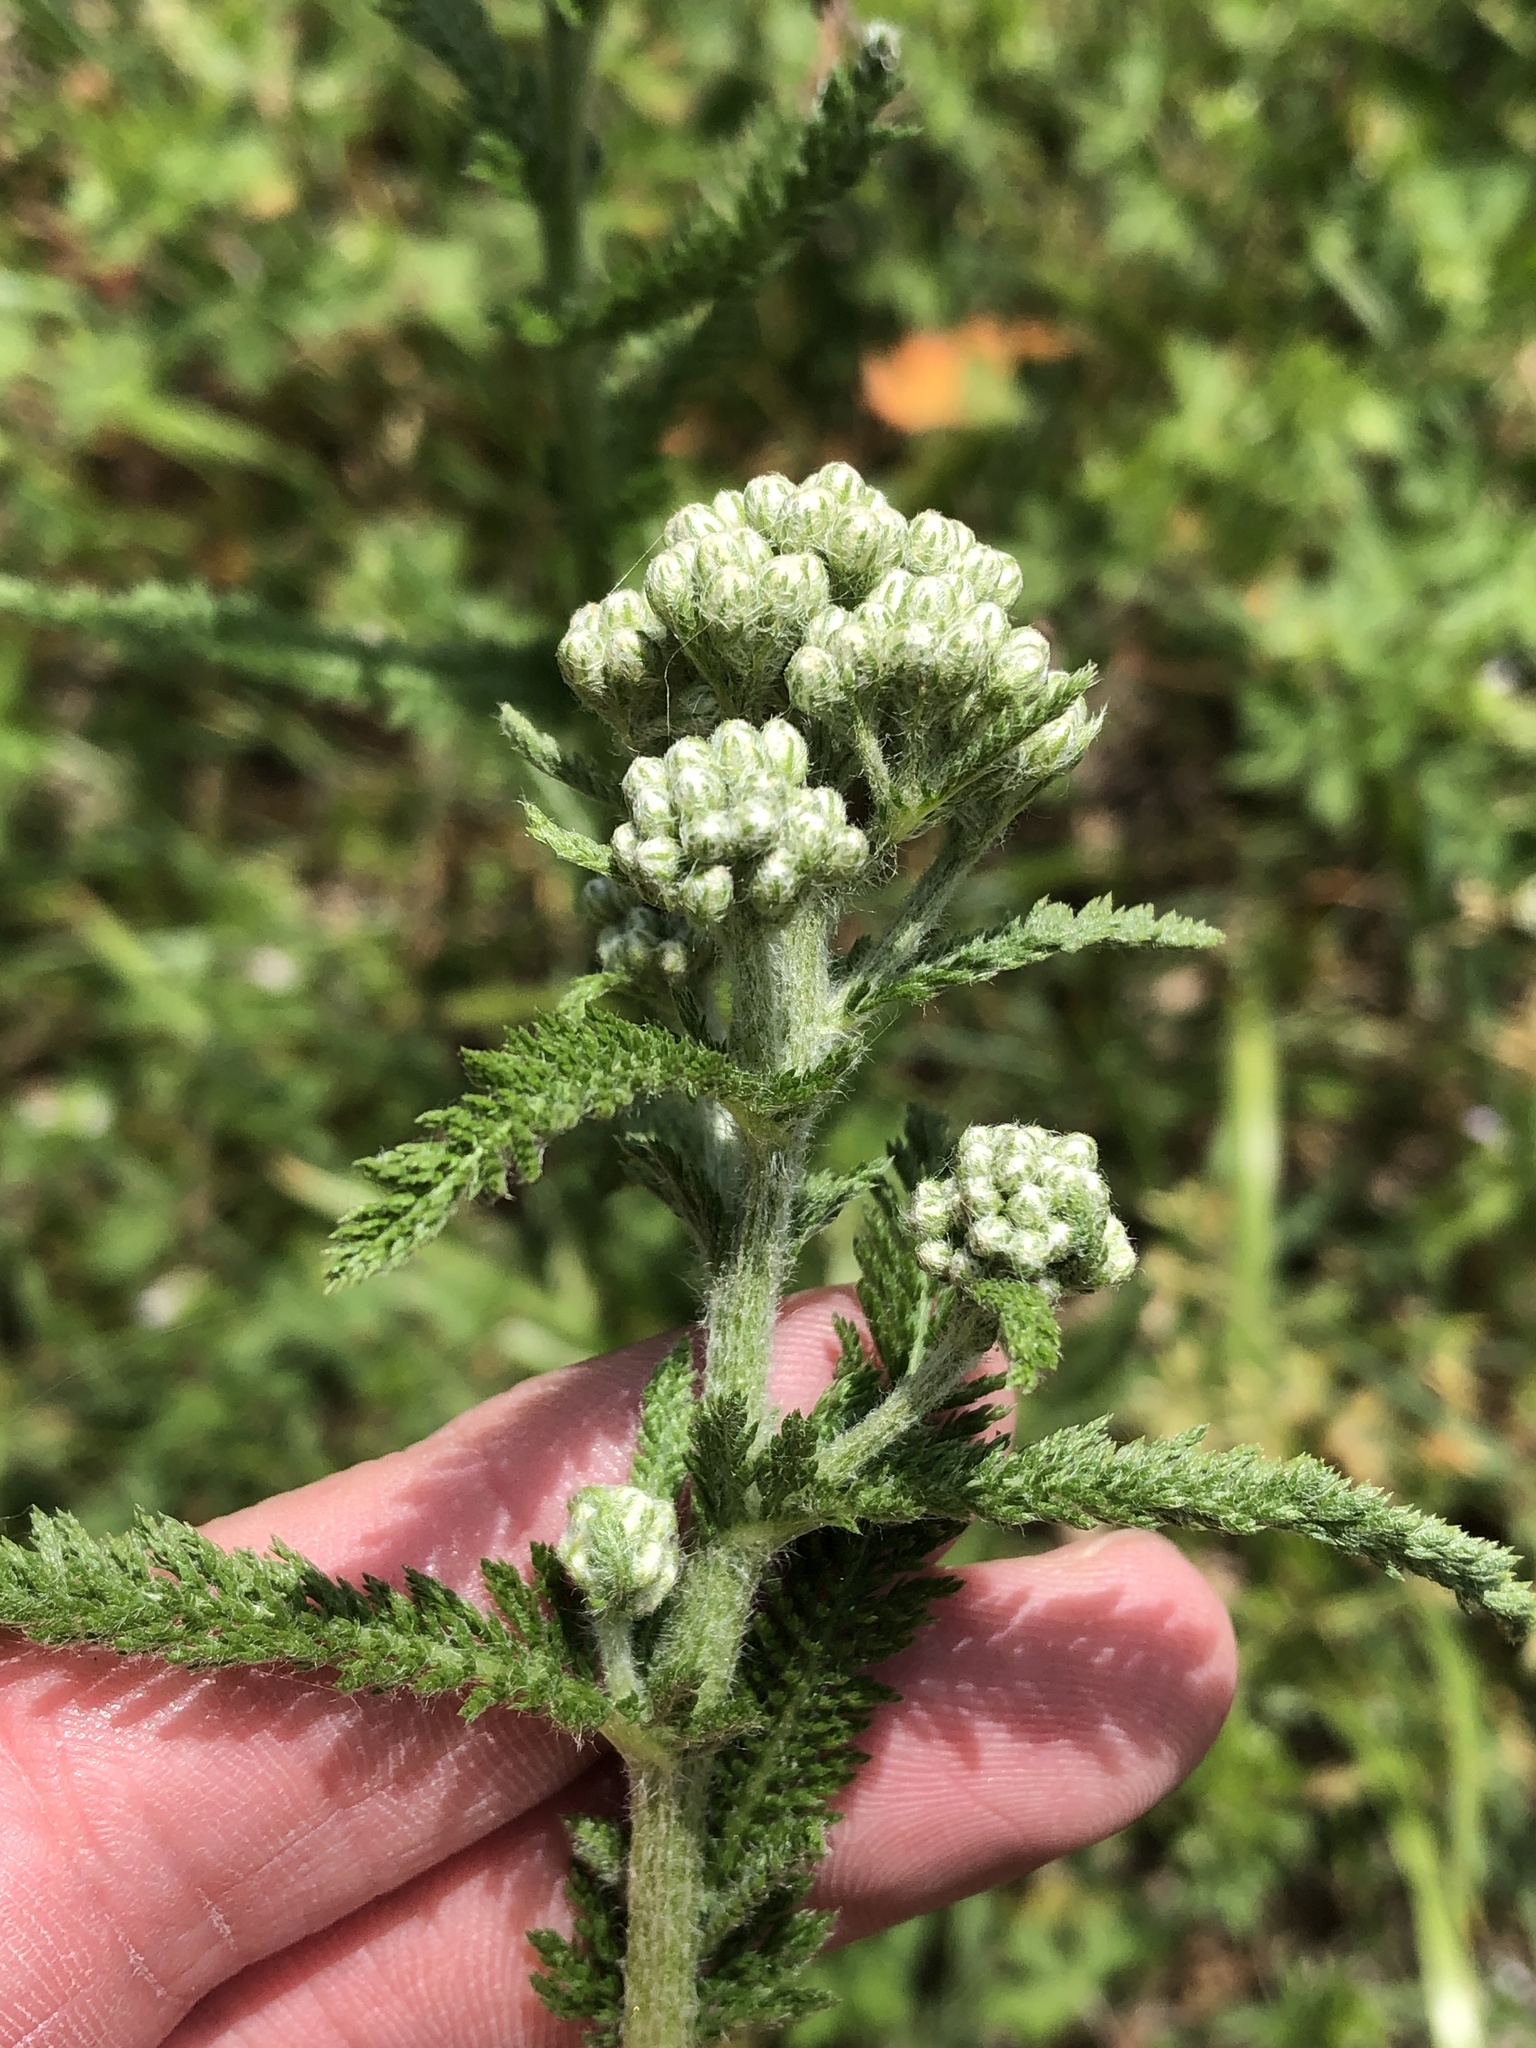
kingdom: Plantae
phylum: Tracheophyta
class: Magnoliopsida
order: Asterales
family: Asteraceae
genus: Achillea
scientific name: Achillea millefolium
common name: Yarrow
